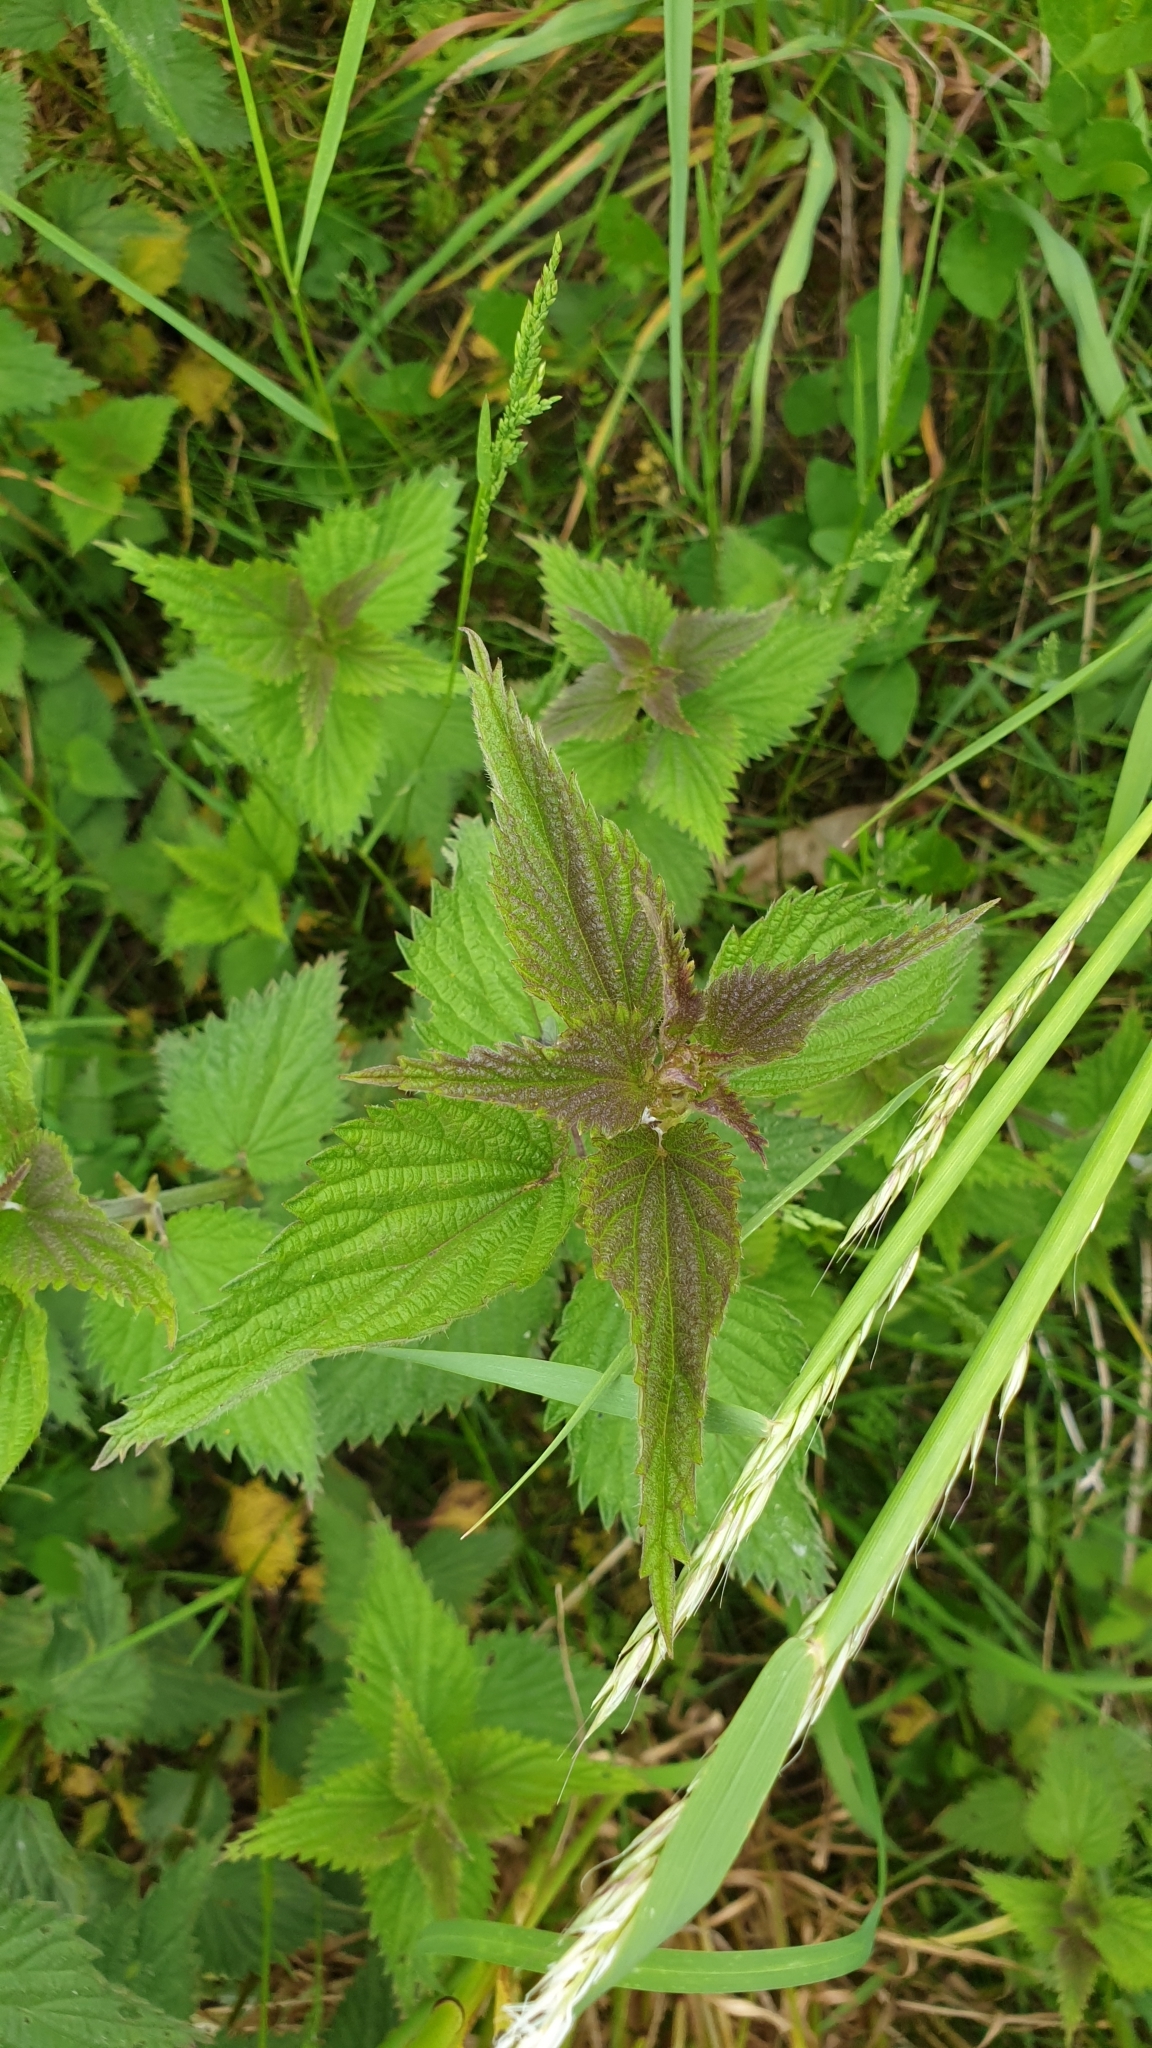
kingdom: Plantae
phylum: Tracheophyta
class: Magnoliopsida
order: Rosales
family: Urticaceae
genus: Urtica
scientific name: Urtica dioica
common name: Common nettle
